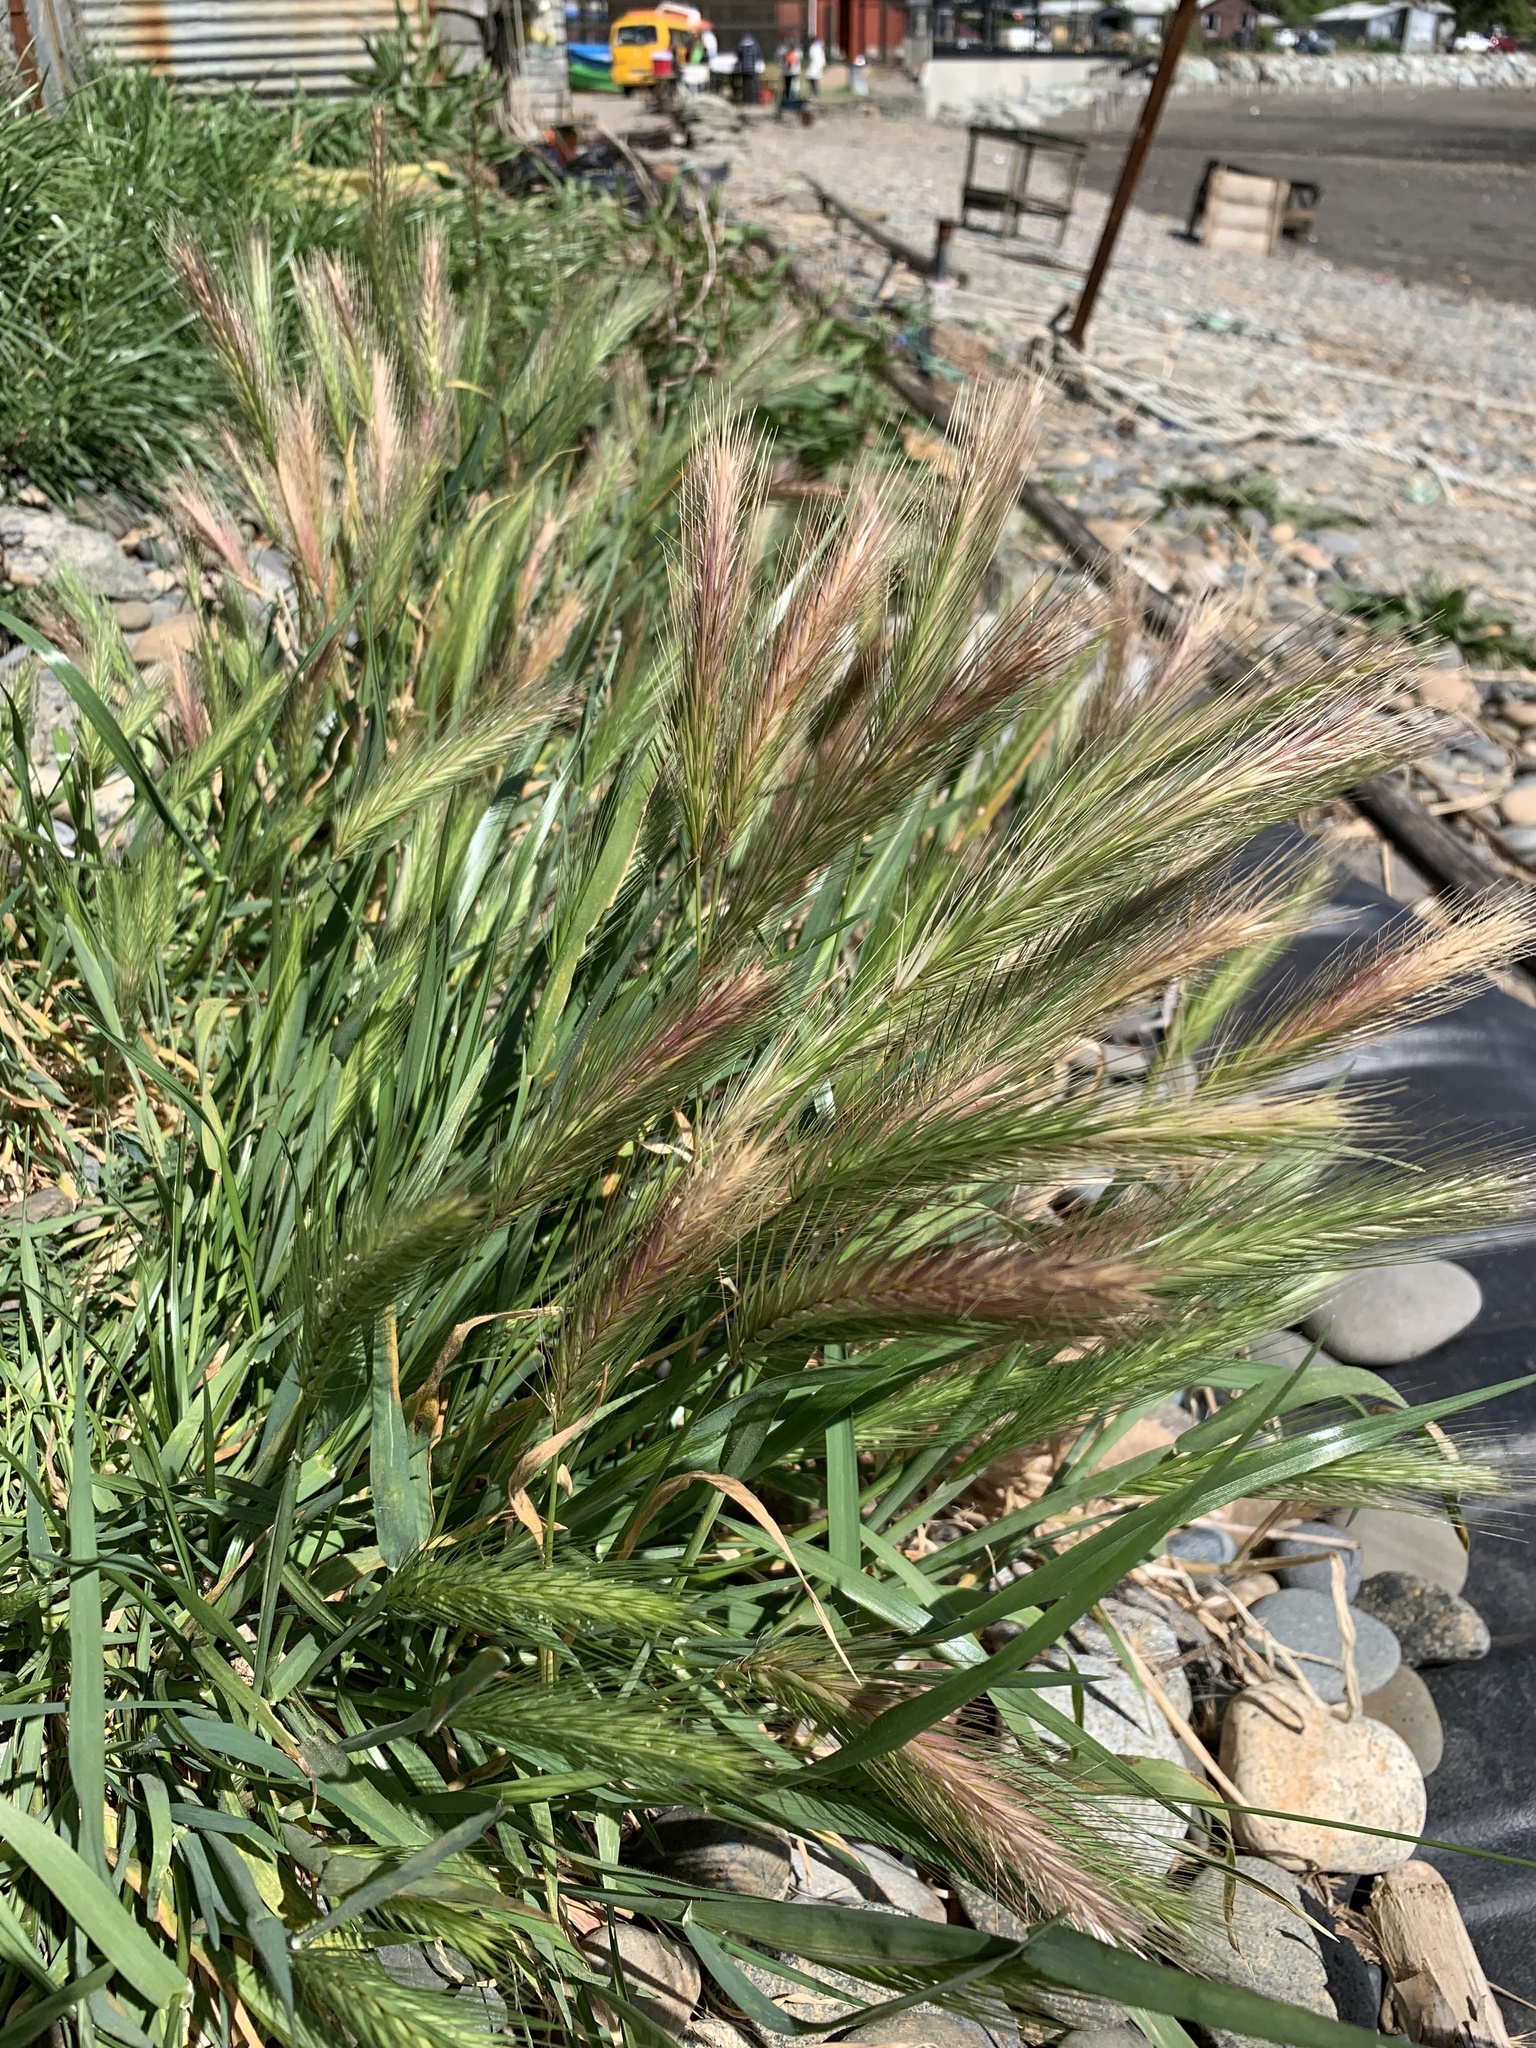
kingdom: Plantae
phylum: Tracheophyta
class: Liliopsida
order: Poales
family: Poaceae
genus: Hordeum
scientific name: Hordeum murinum
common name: Wall barley
